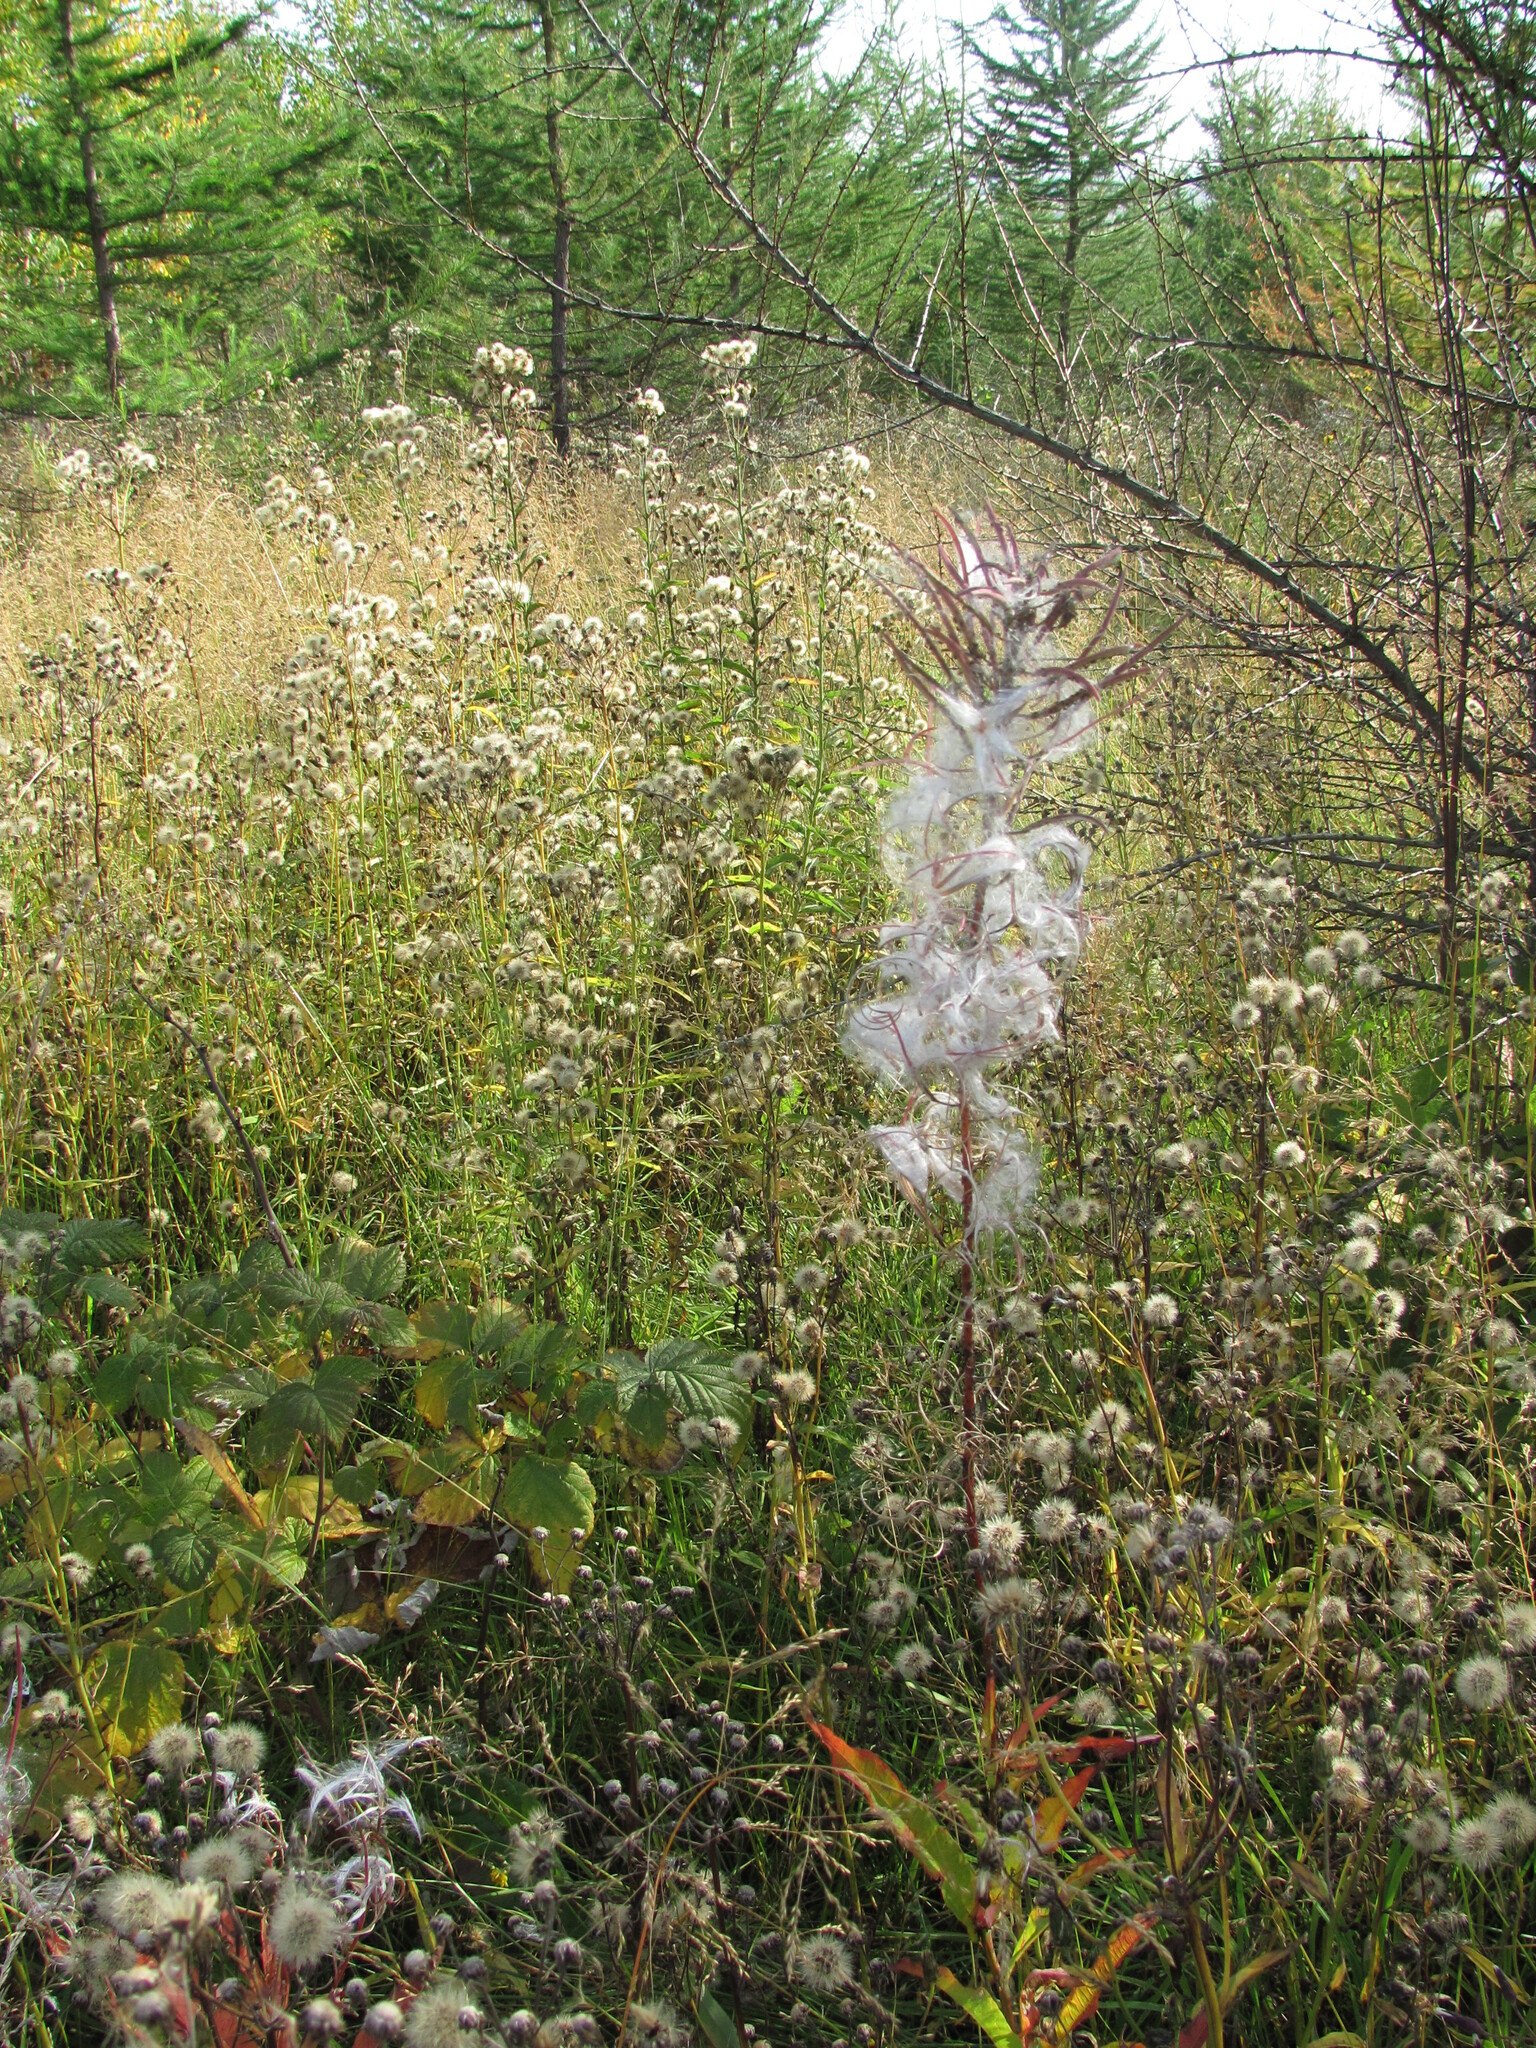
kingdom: Plantae
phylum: Tracheophyta
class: Magnoliopsida
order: Myrtales
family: Onagraceae
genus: Chamaenerion
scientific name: Chamaenerion angustifolium
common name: Fireweed
